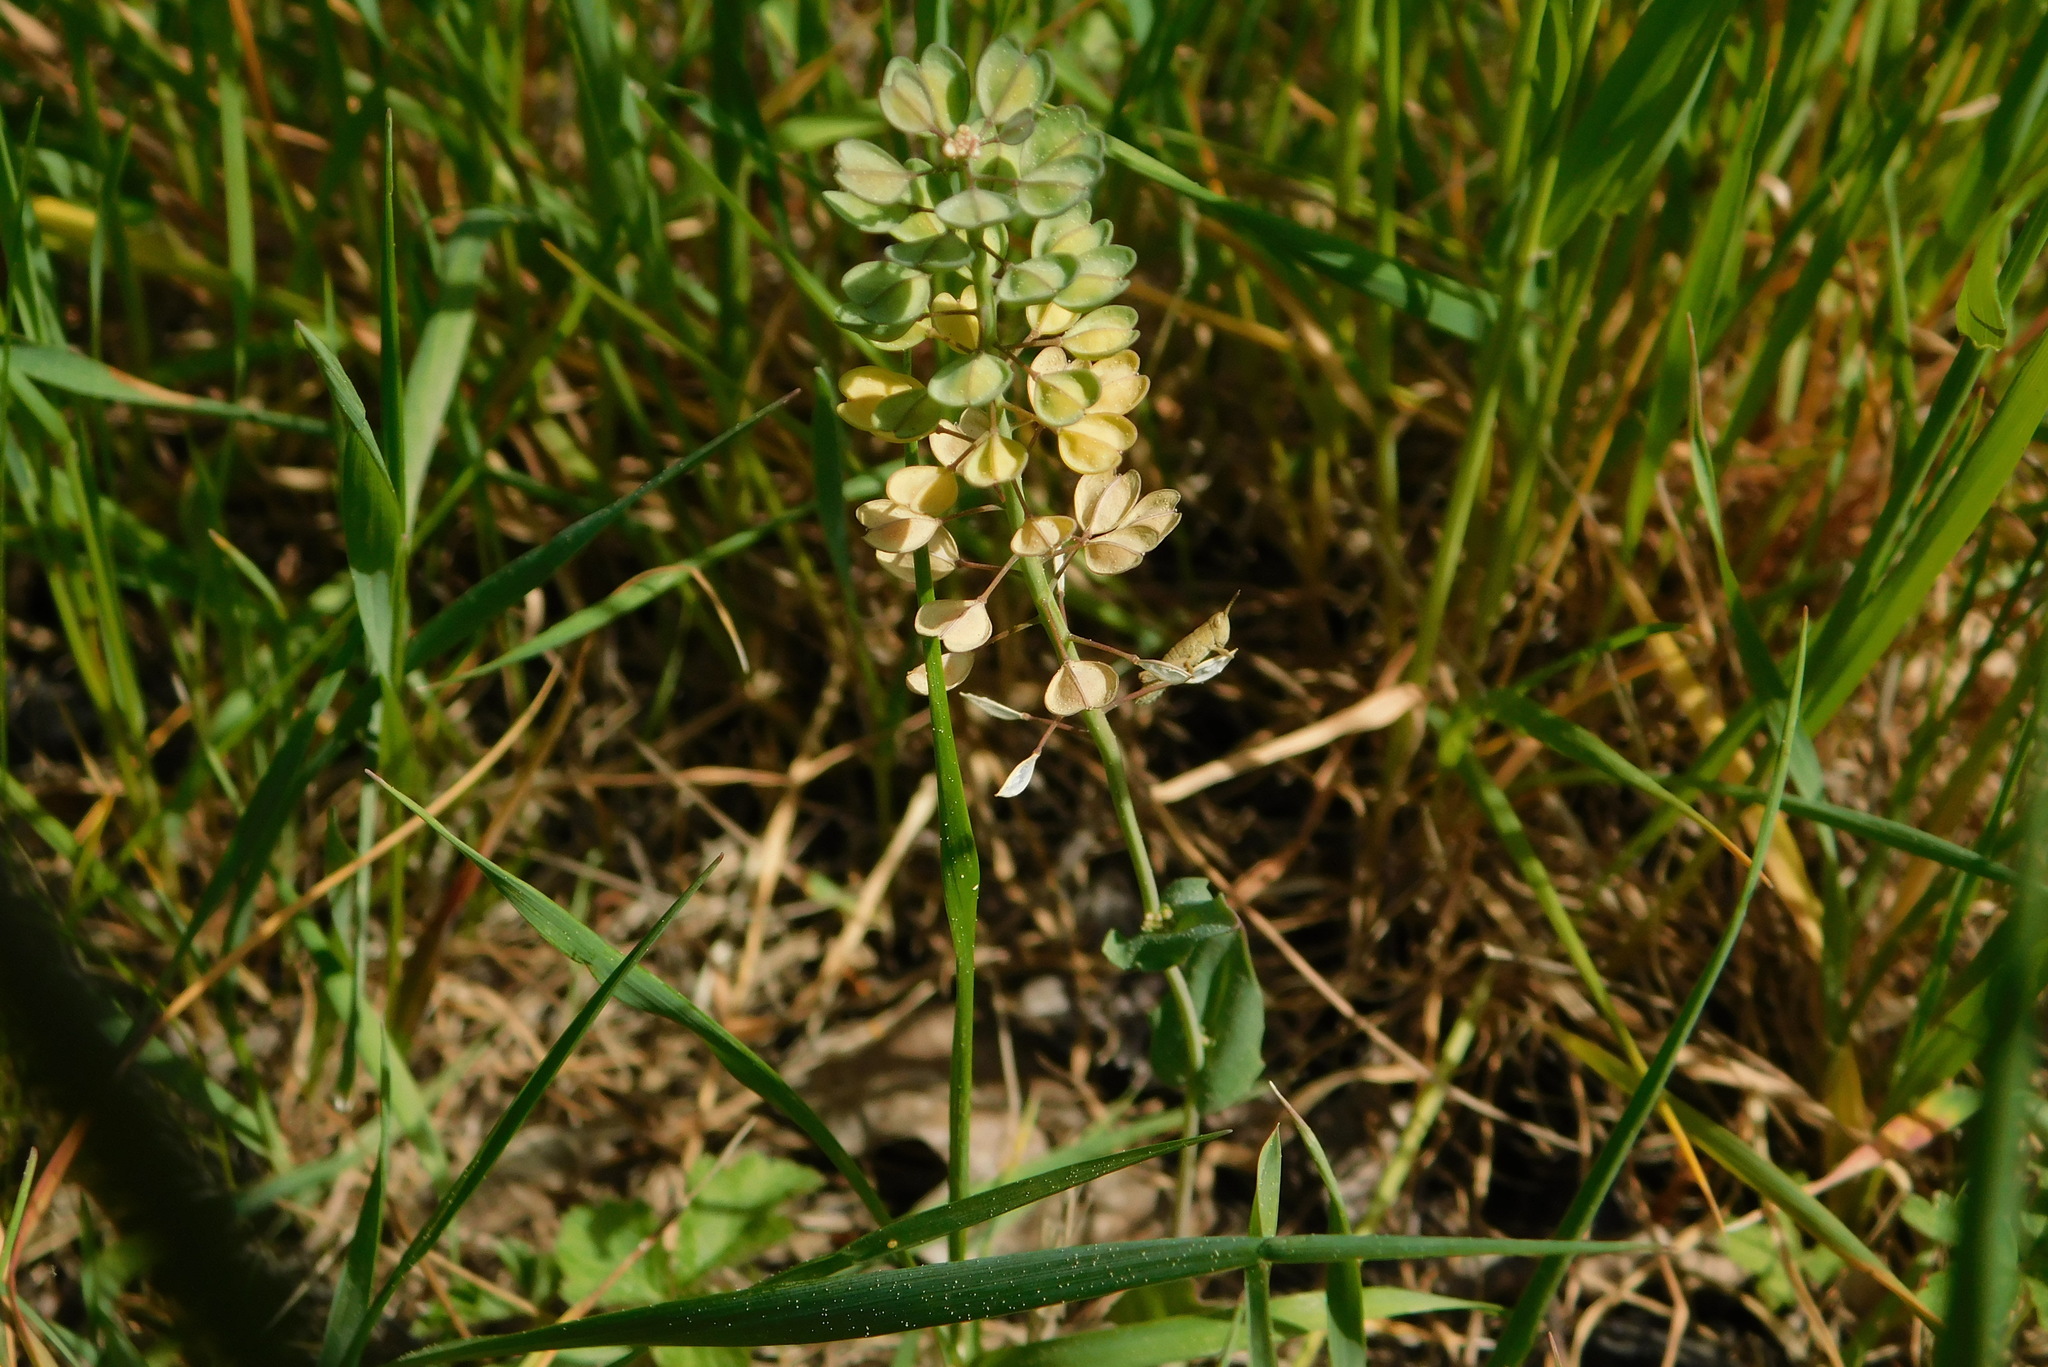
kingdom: Plantae
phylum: Tracheophyta
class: Magnoliopsida
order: Brassicales
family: Brassicaceae
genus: Noccaea
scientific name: Noccaea perfoliata
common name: Perfoliate pennycress
